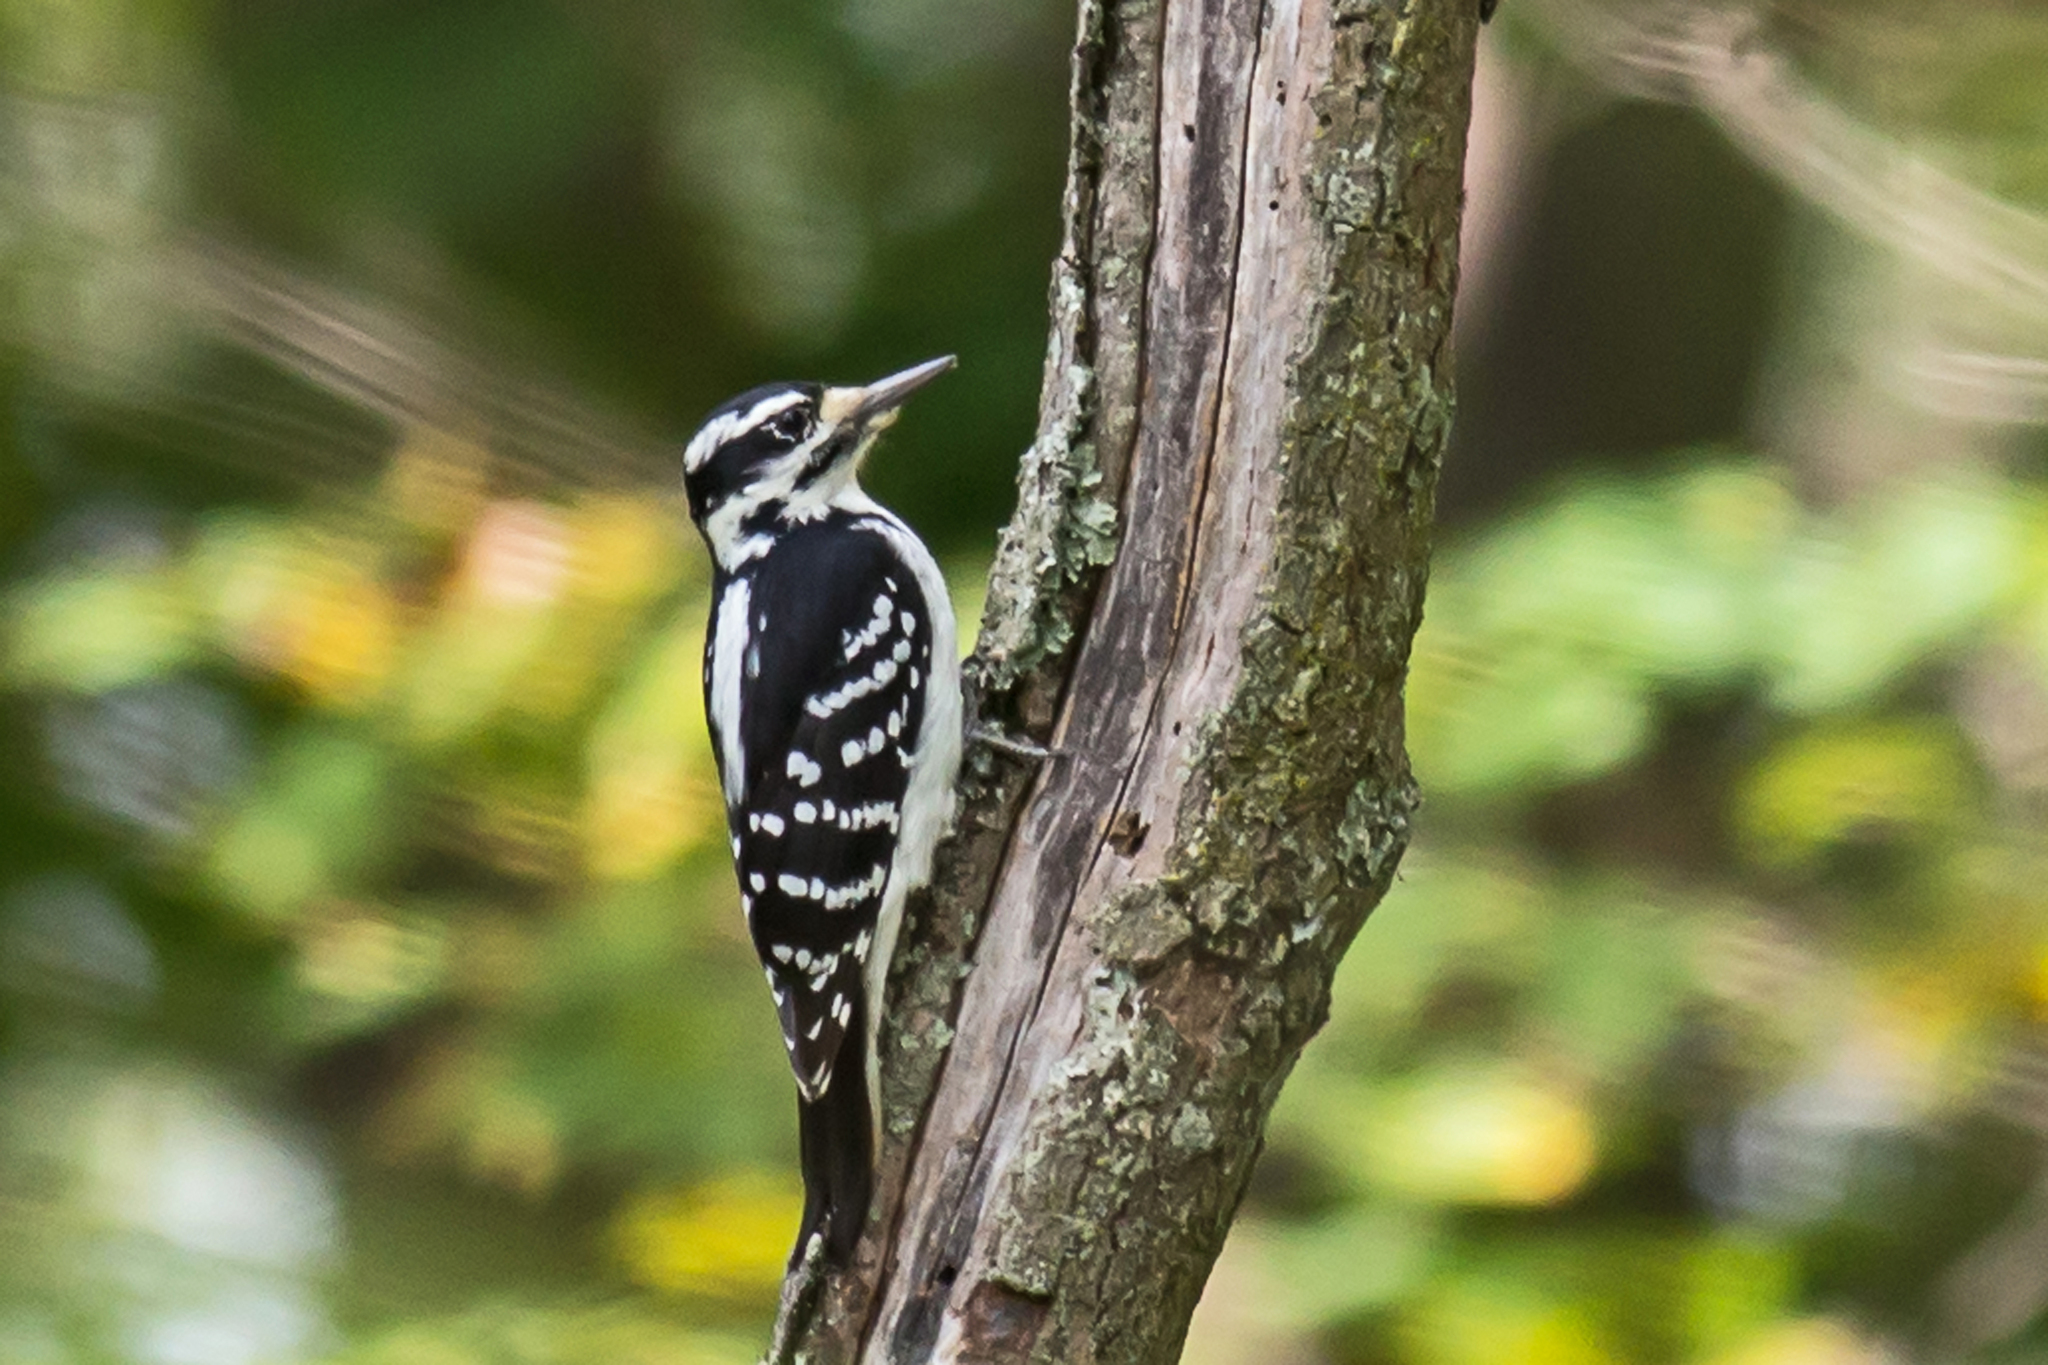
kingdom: Animalia
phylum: Chordata
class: Aves
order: Piciformes
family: Picidae
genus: Leuconotopicus
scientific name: Leuconotopicus villosus
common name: Hairy woodpecker
